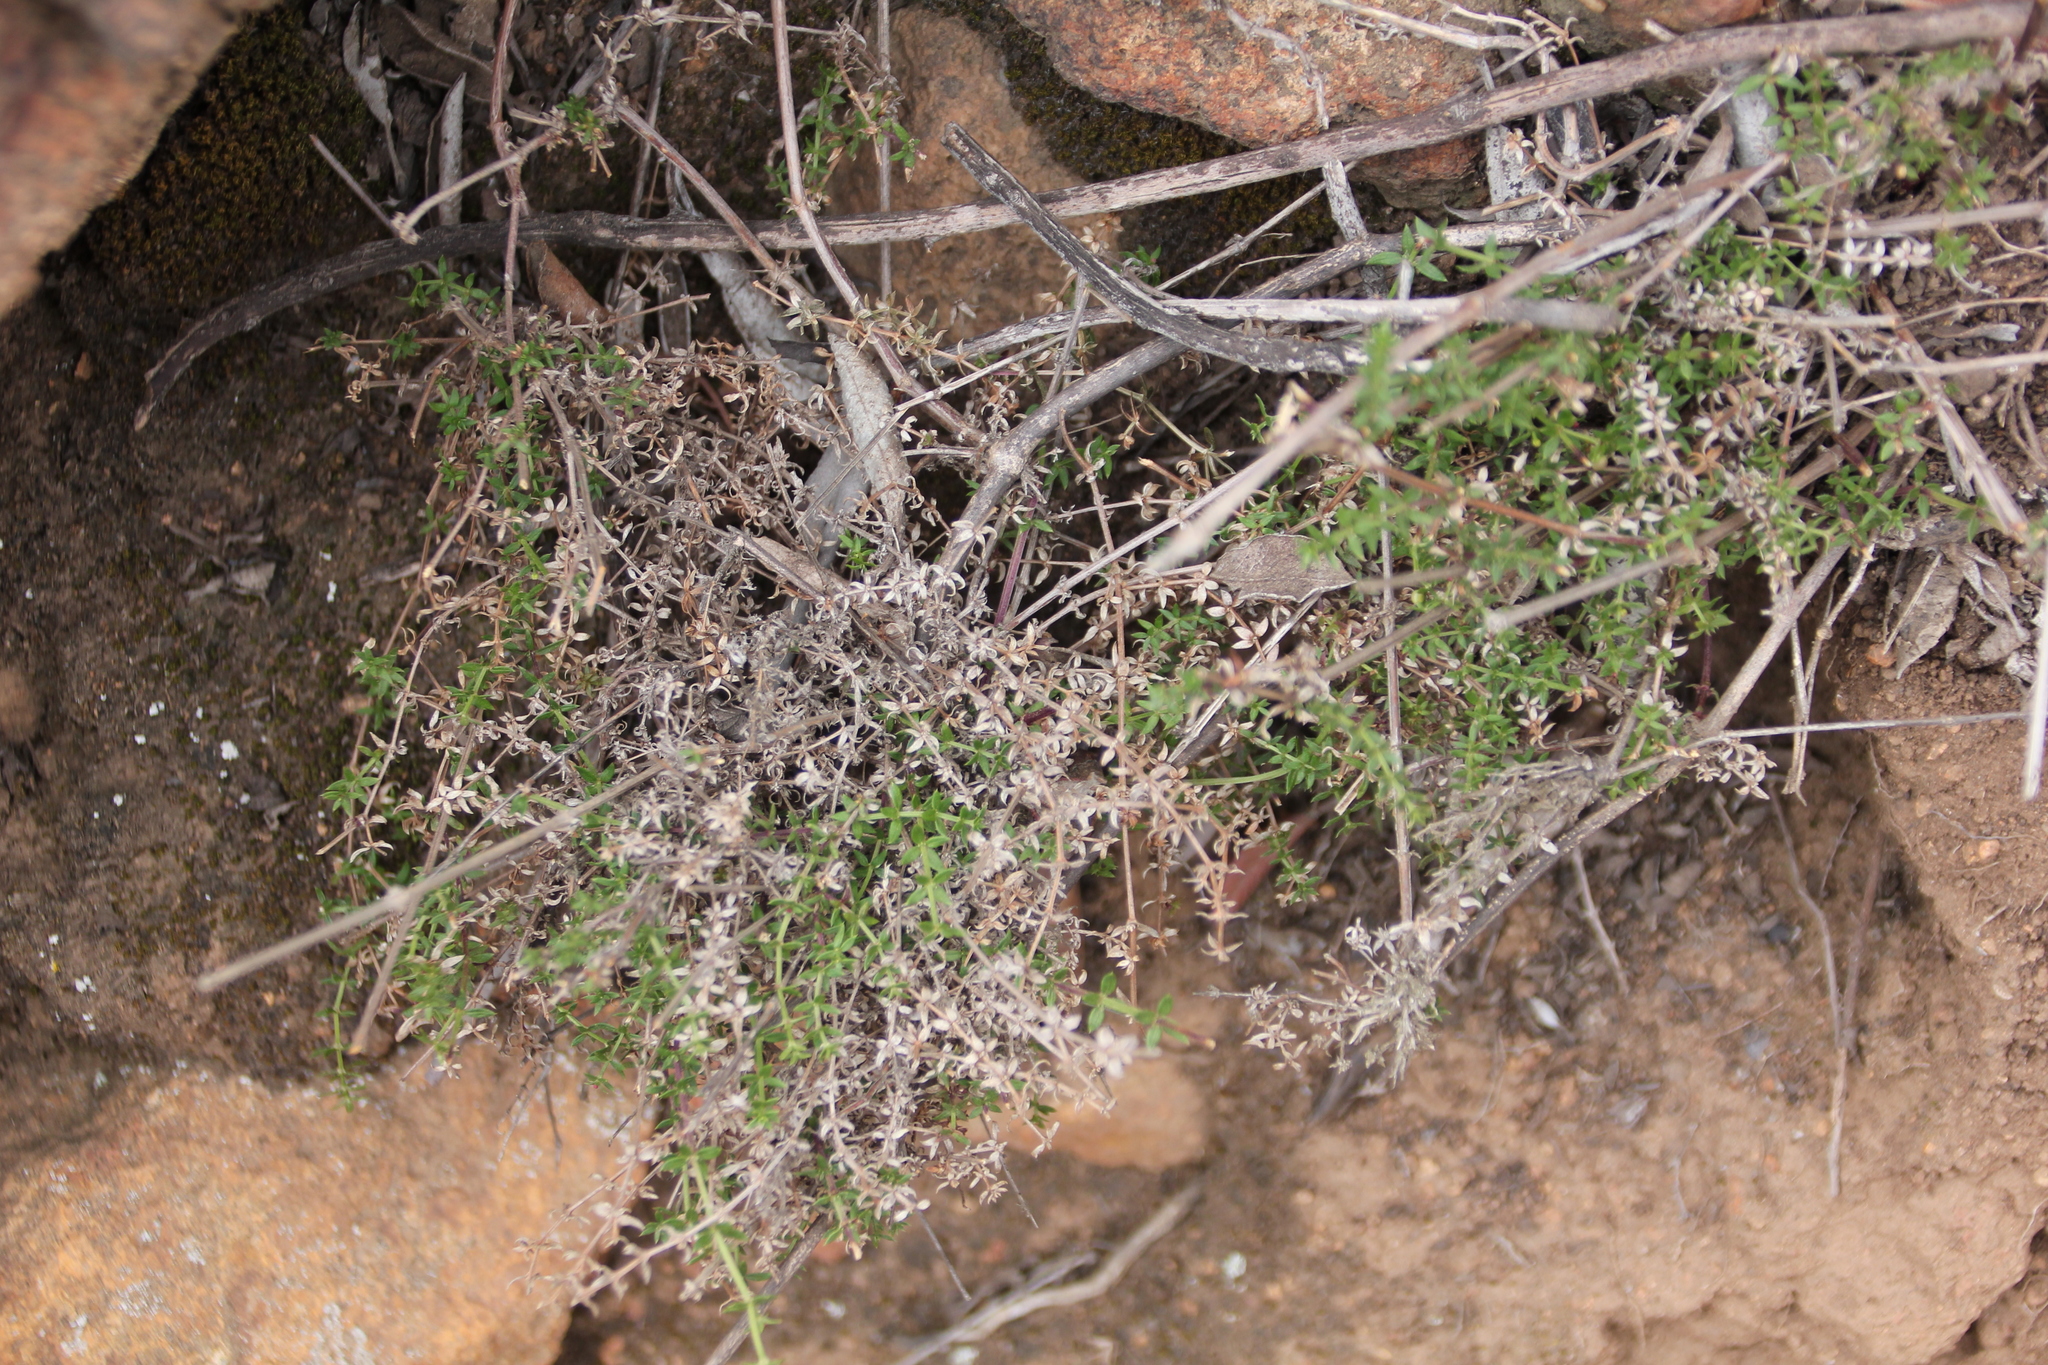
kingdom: Plantae
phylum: Tracheophyta
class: Magnoliopsida
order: Gentianales
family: Rubiaceae
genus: Galium
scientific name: Galium nuttallii
